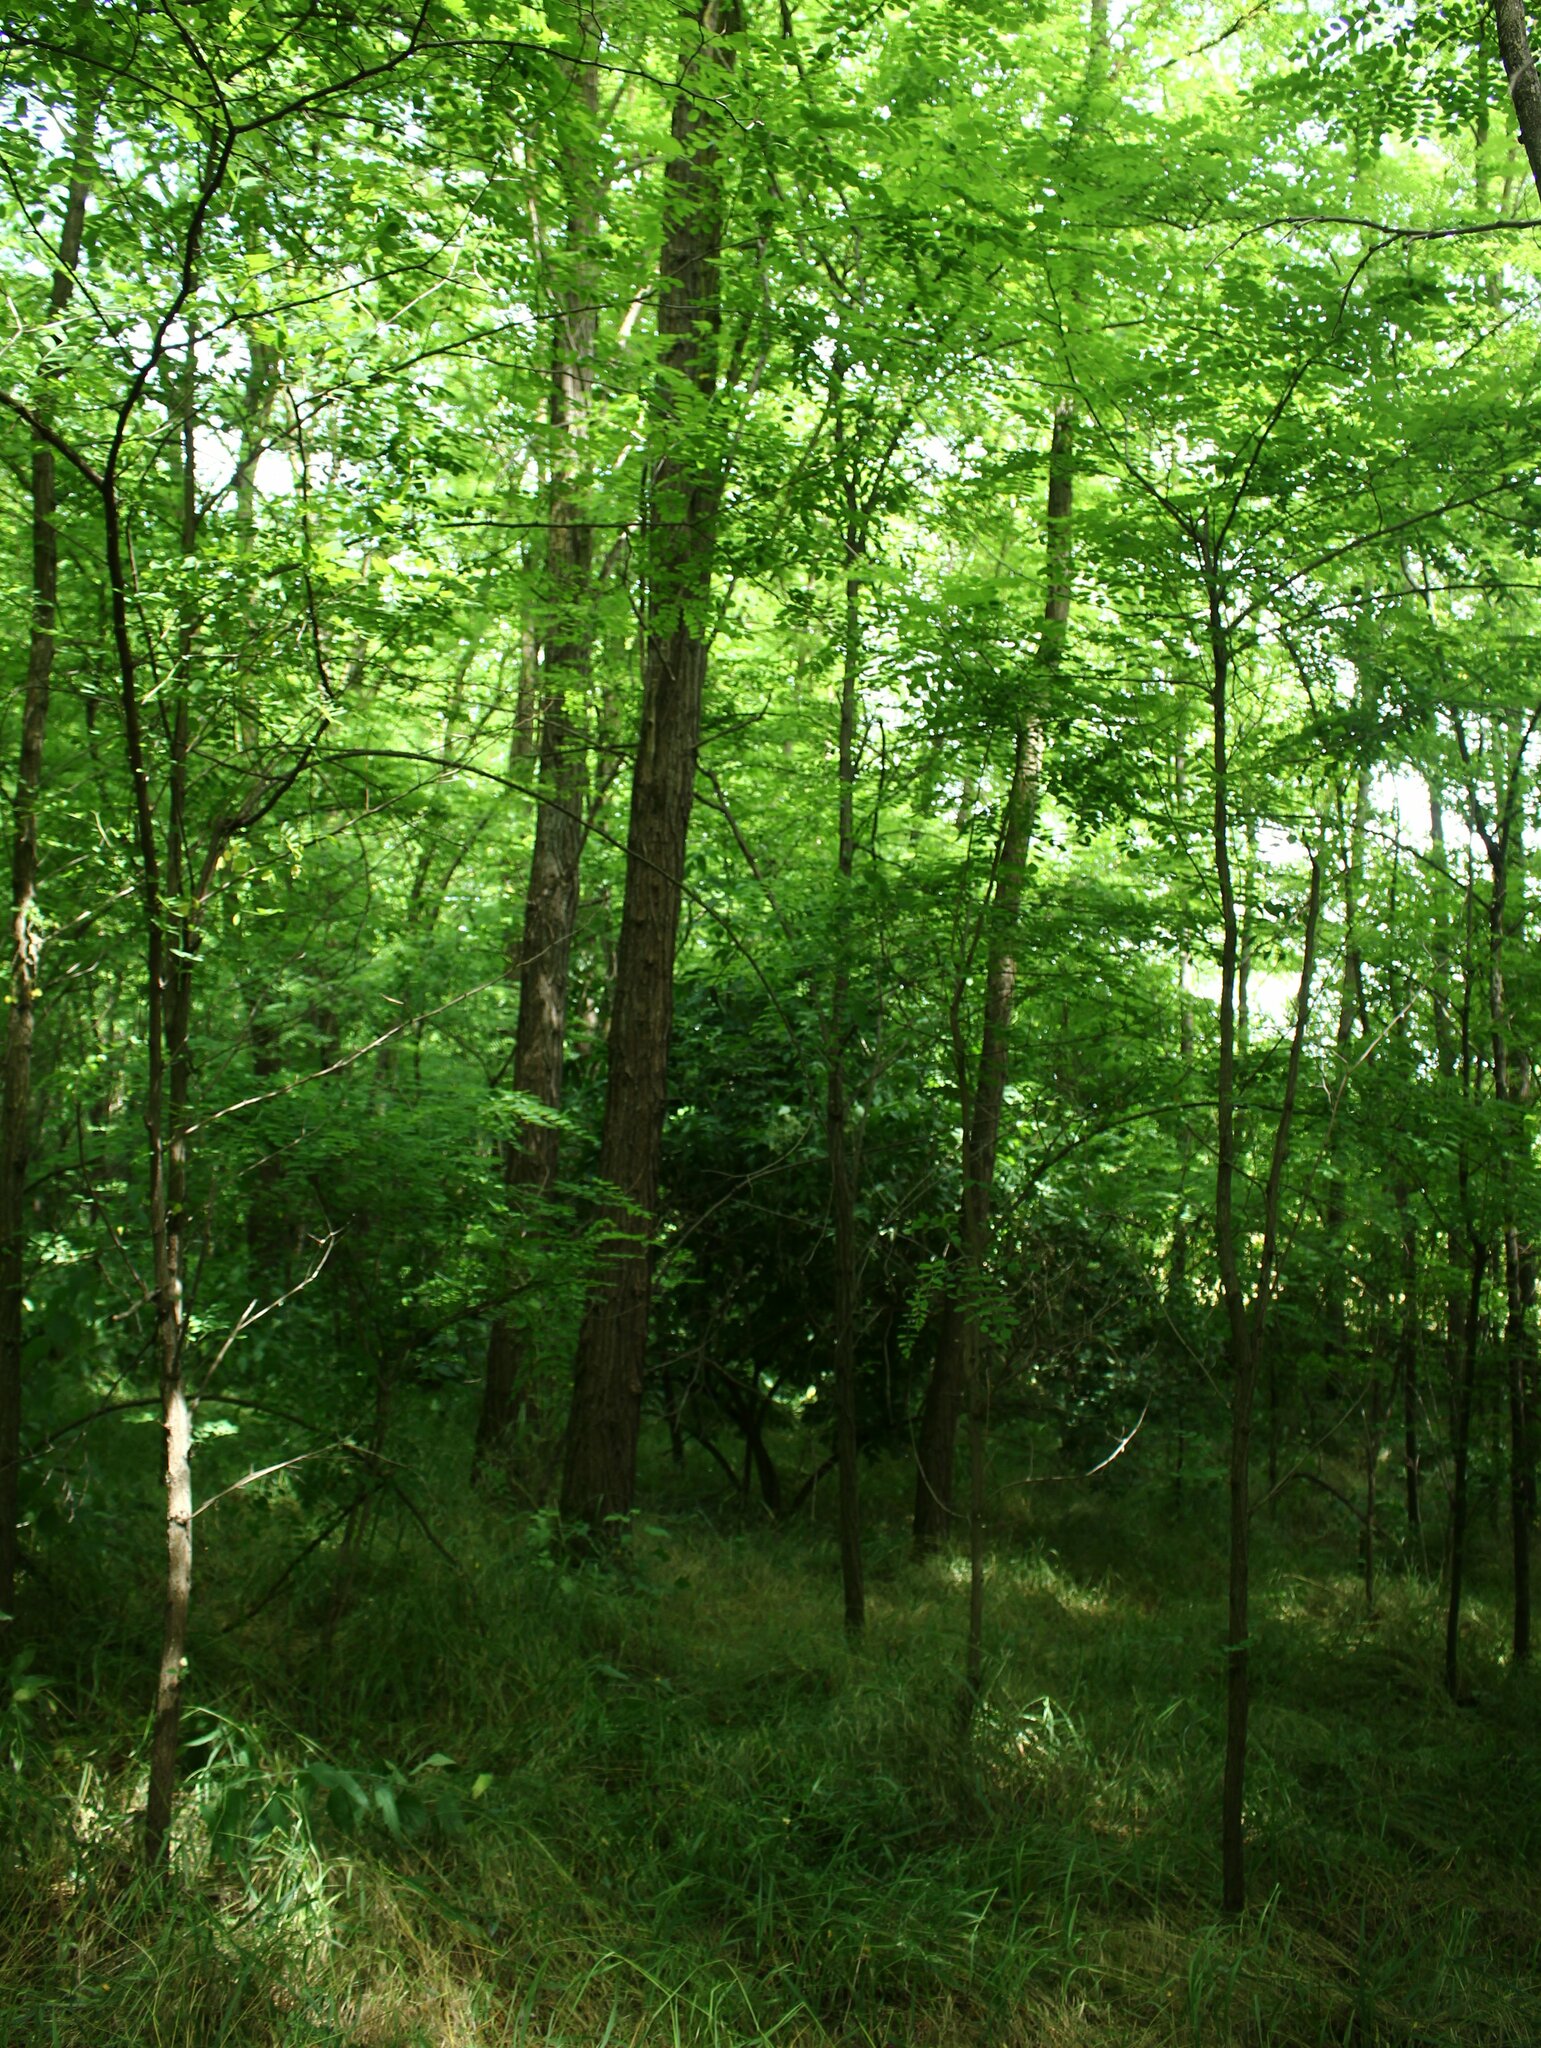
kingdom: Plantae
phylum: Tracheophyta
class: Magnoliopsida
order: Fabales
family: Fabaceae
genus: Robinia
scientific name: Robinia pseudoacacia
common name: Black locust
